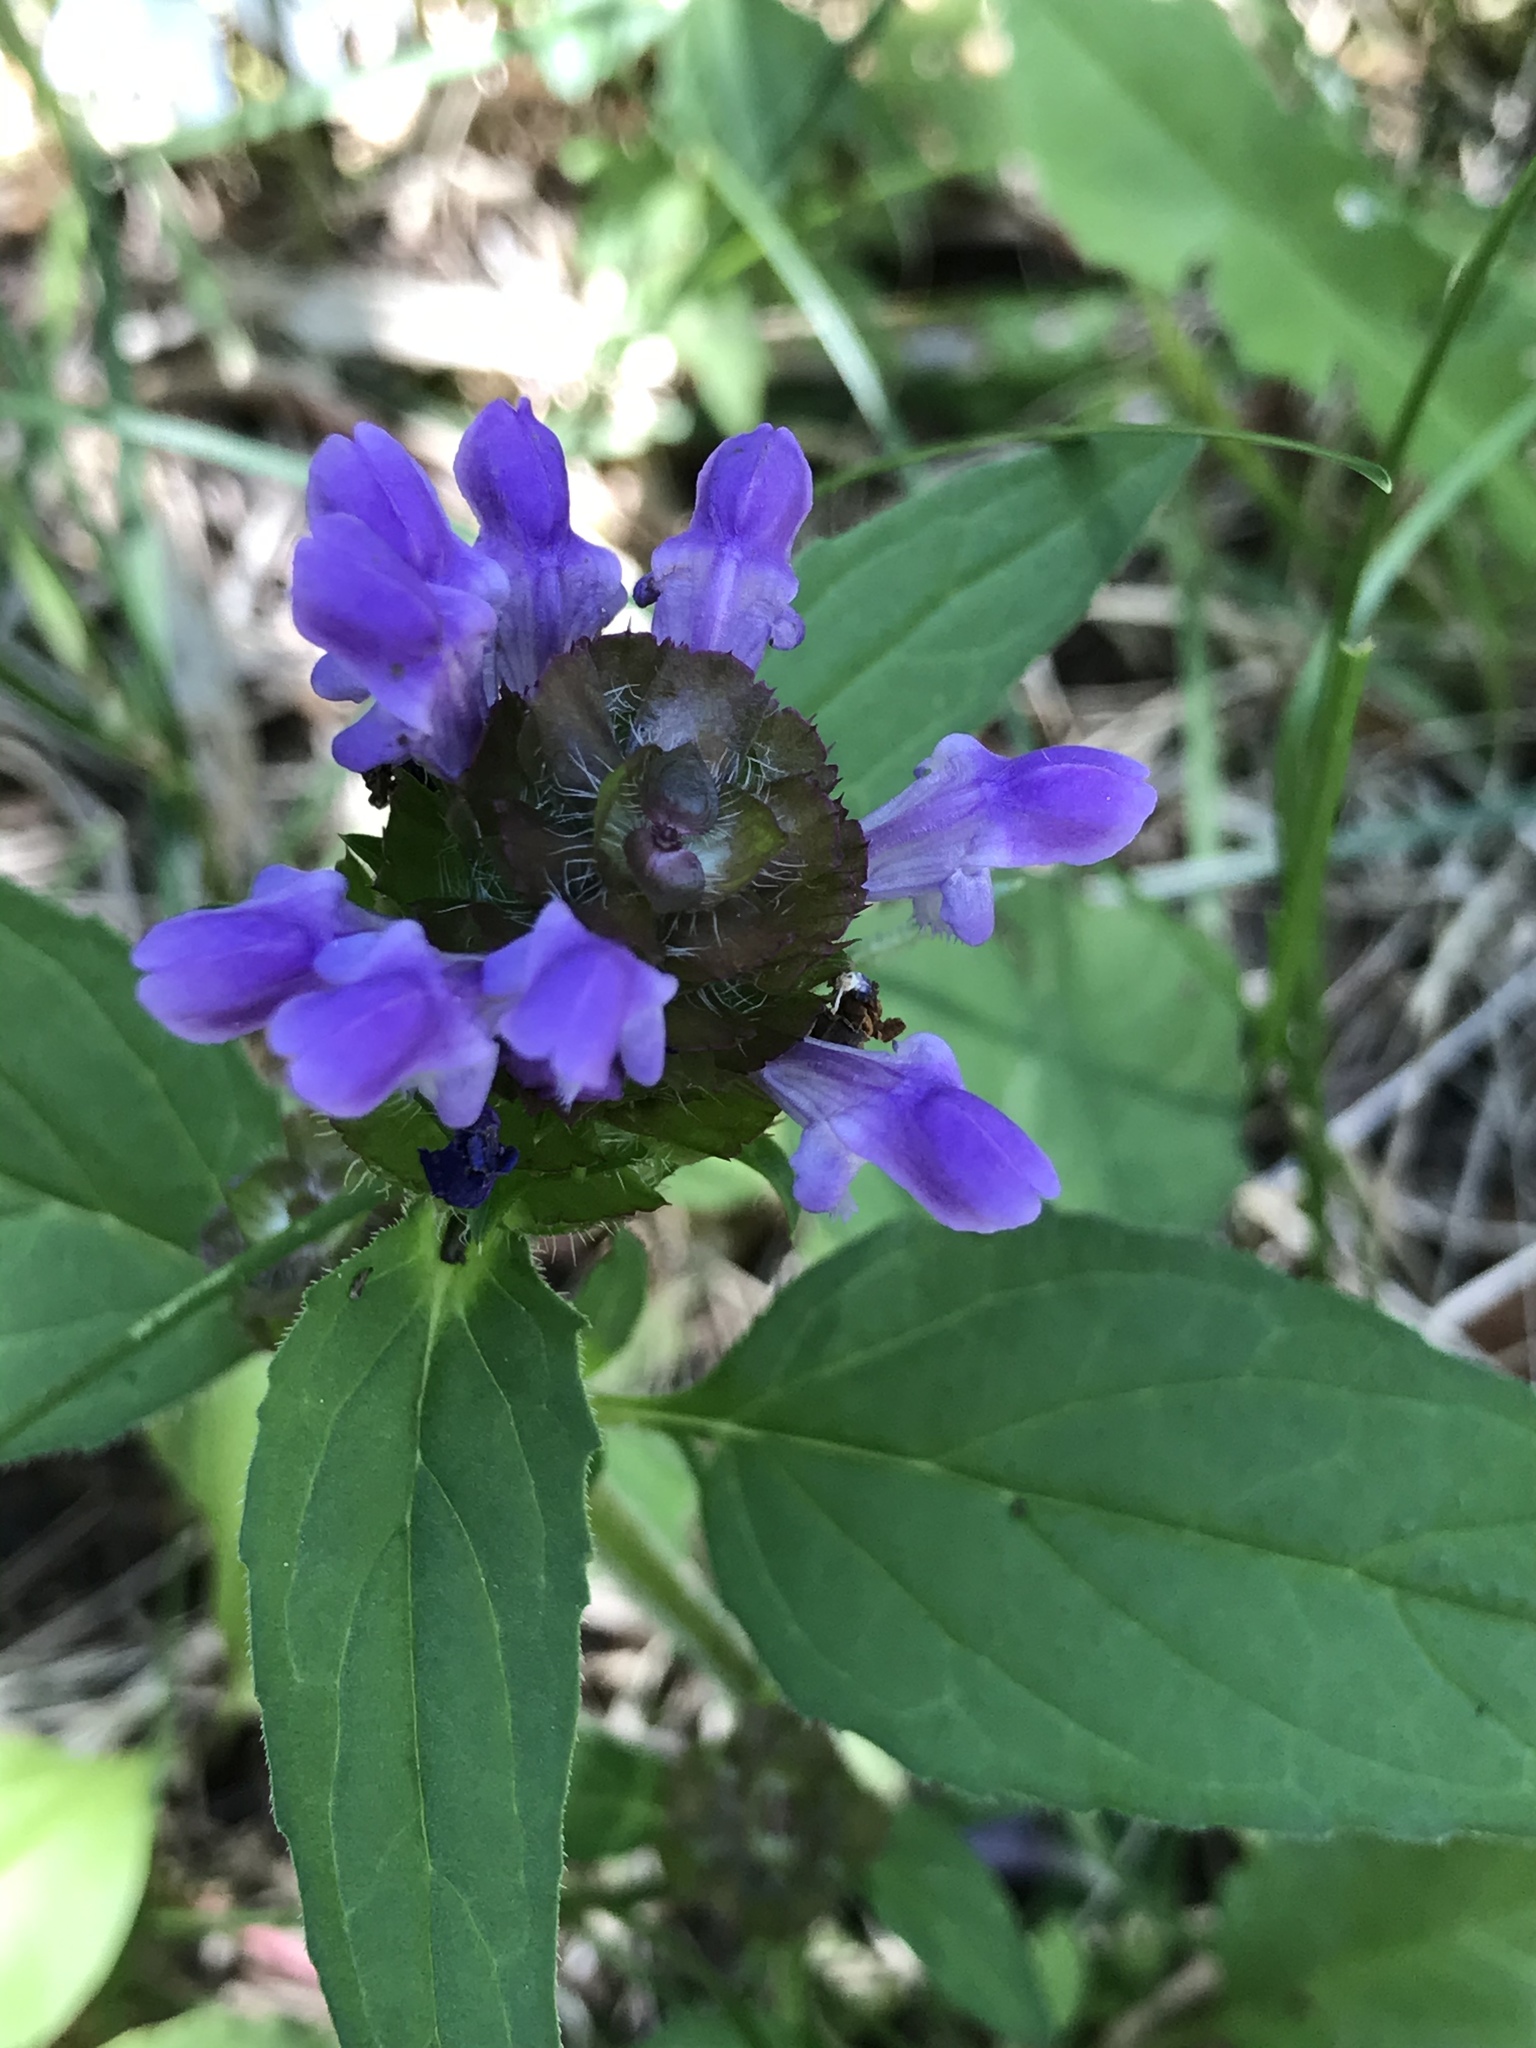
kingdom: Plantae
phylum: Tracheophyta
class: Magnoliopsida
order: Lamiales
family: Lamiaceae
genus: Prunella
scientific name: Prunella vulgaris
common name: Heal-all
